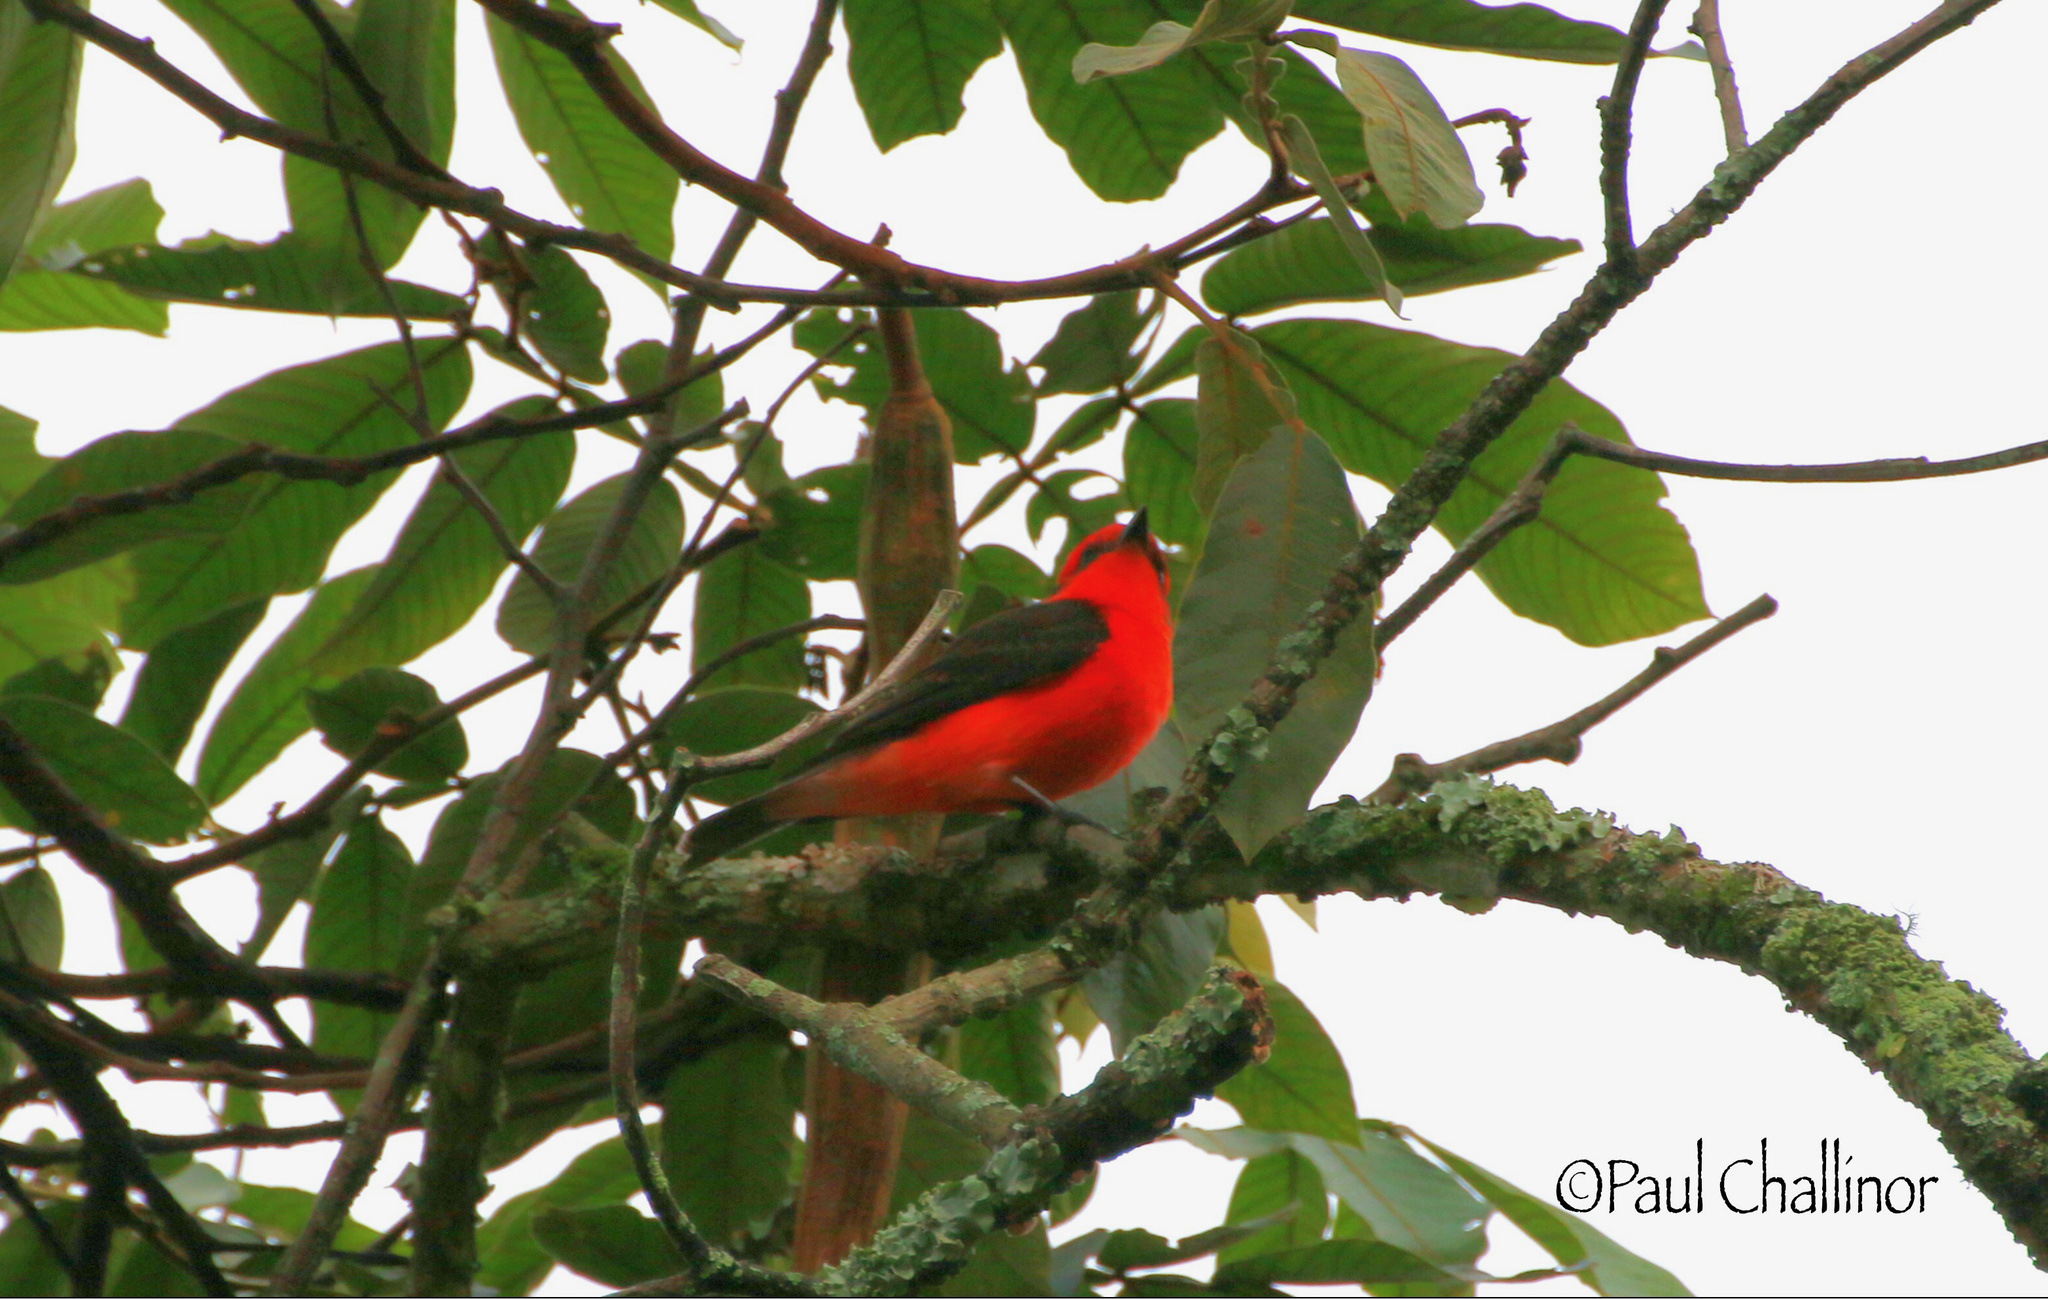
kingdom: Animalia
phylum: Chordata
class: Aves
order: Passeriformes
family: Tyrannidae
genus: Pyrocephalus
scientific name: Pyrocephalus rubinus
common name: Vermilion flycatcher
